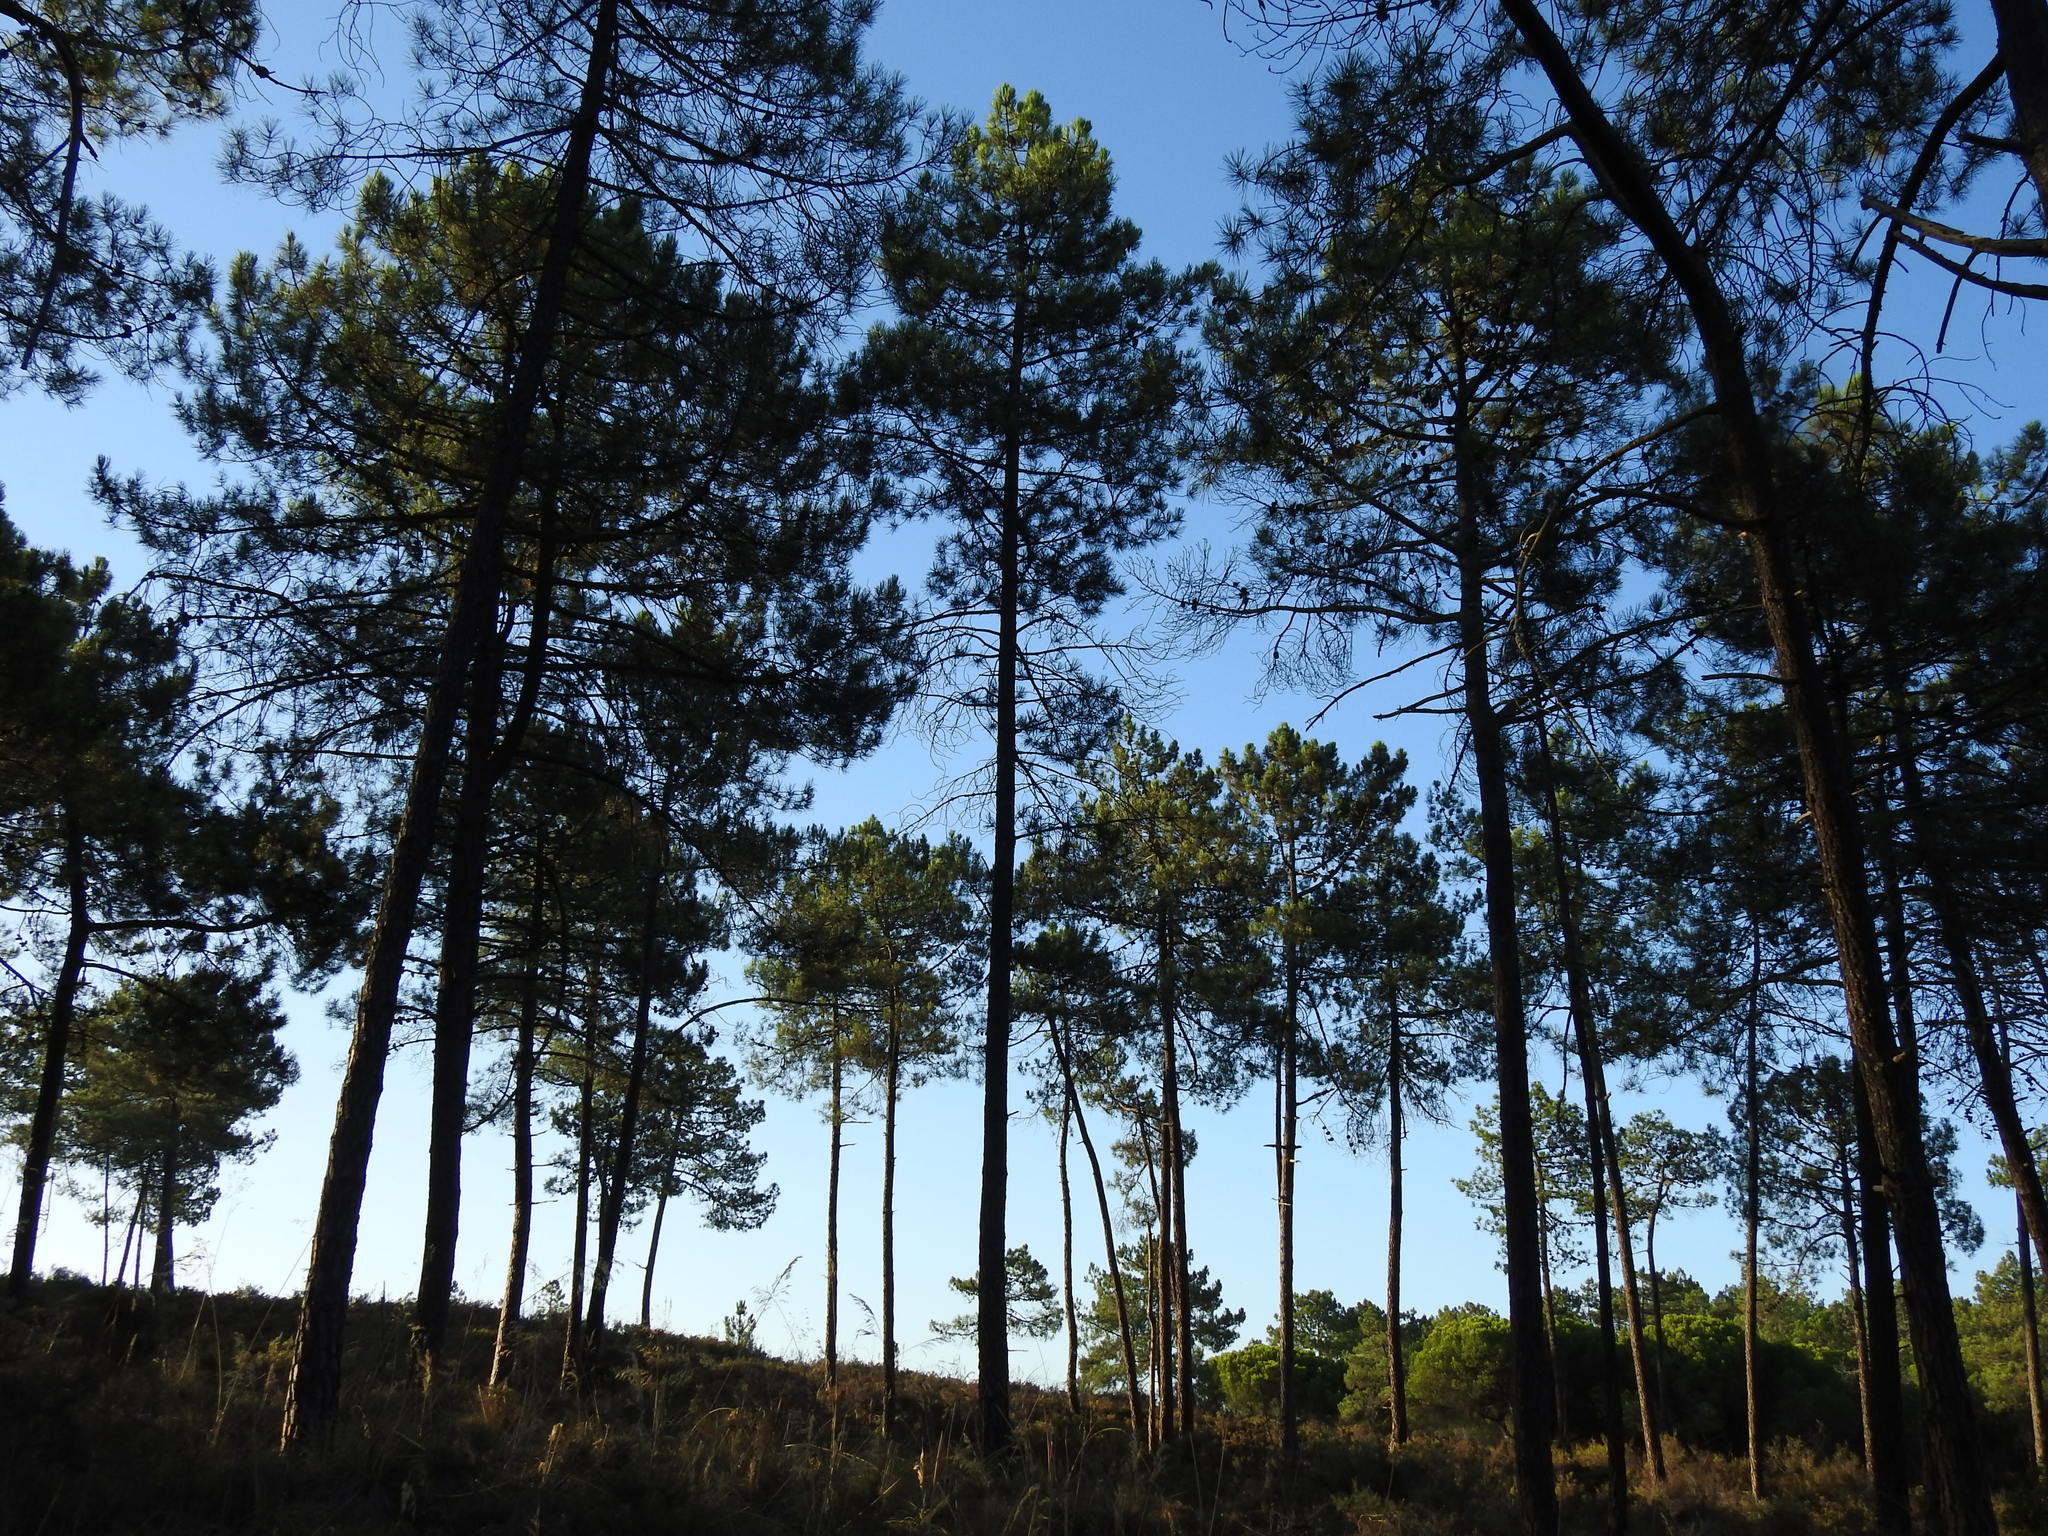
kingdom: Plantae
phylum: Tracheophyta
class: Pinopsida
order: Pinales
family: Pinaceae
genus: Pinus
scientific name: Pinus pinaster
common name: Maritime pine
